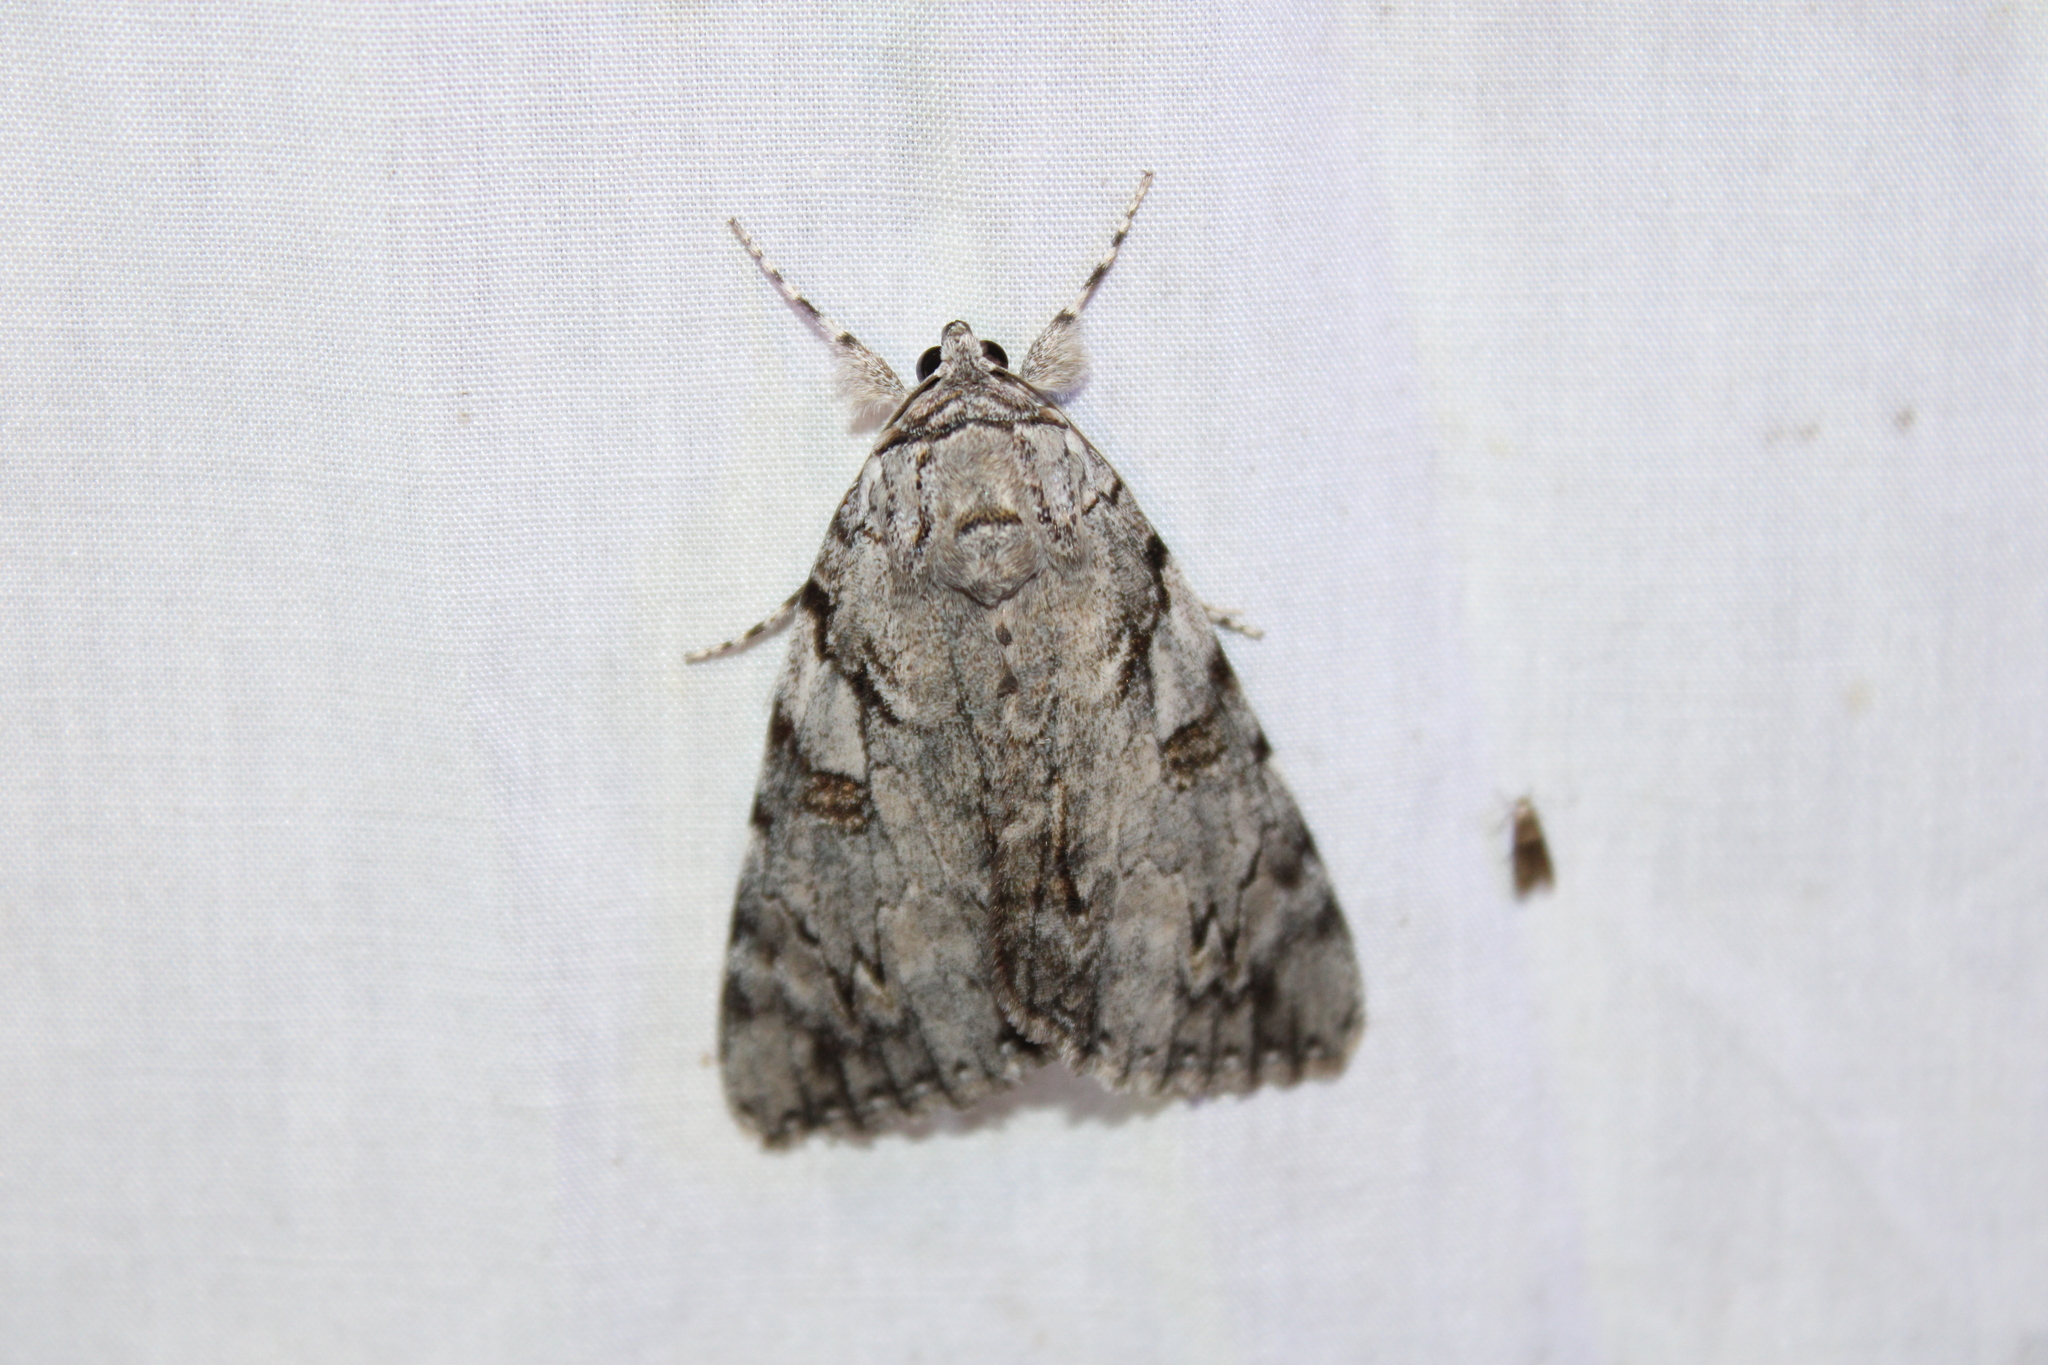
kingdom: Animalia
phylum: Arthropoda
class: Insecta
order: Lepidoptera
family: Erebidae
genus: Catocala
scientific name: Catocala dejecta
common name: Dejected underwing
